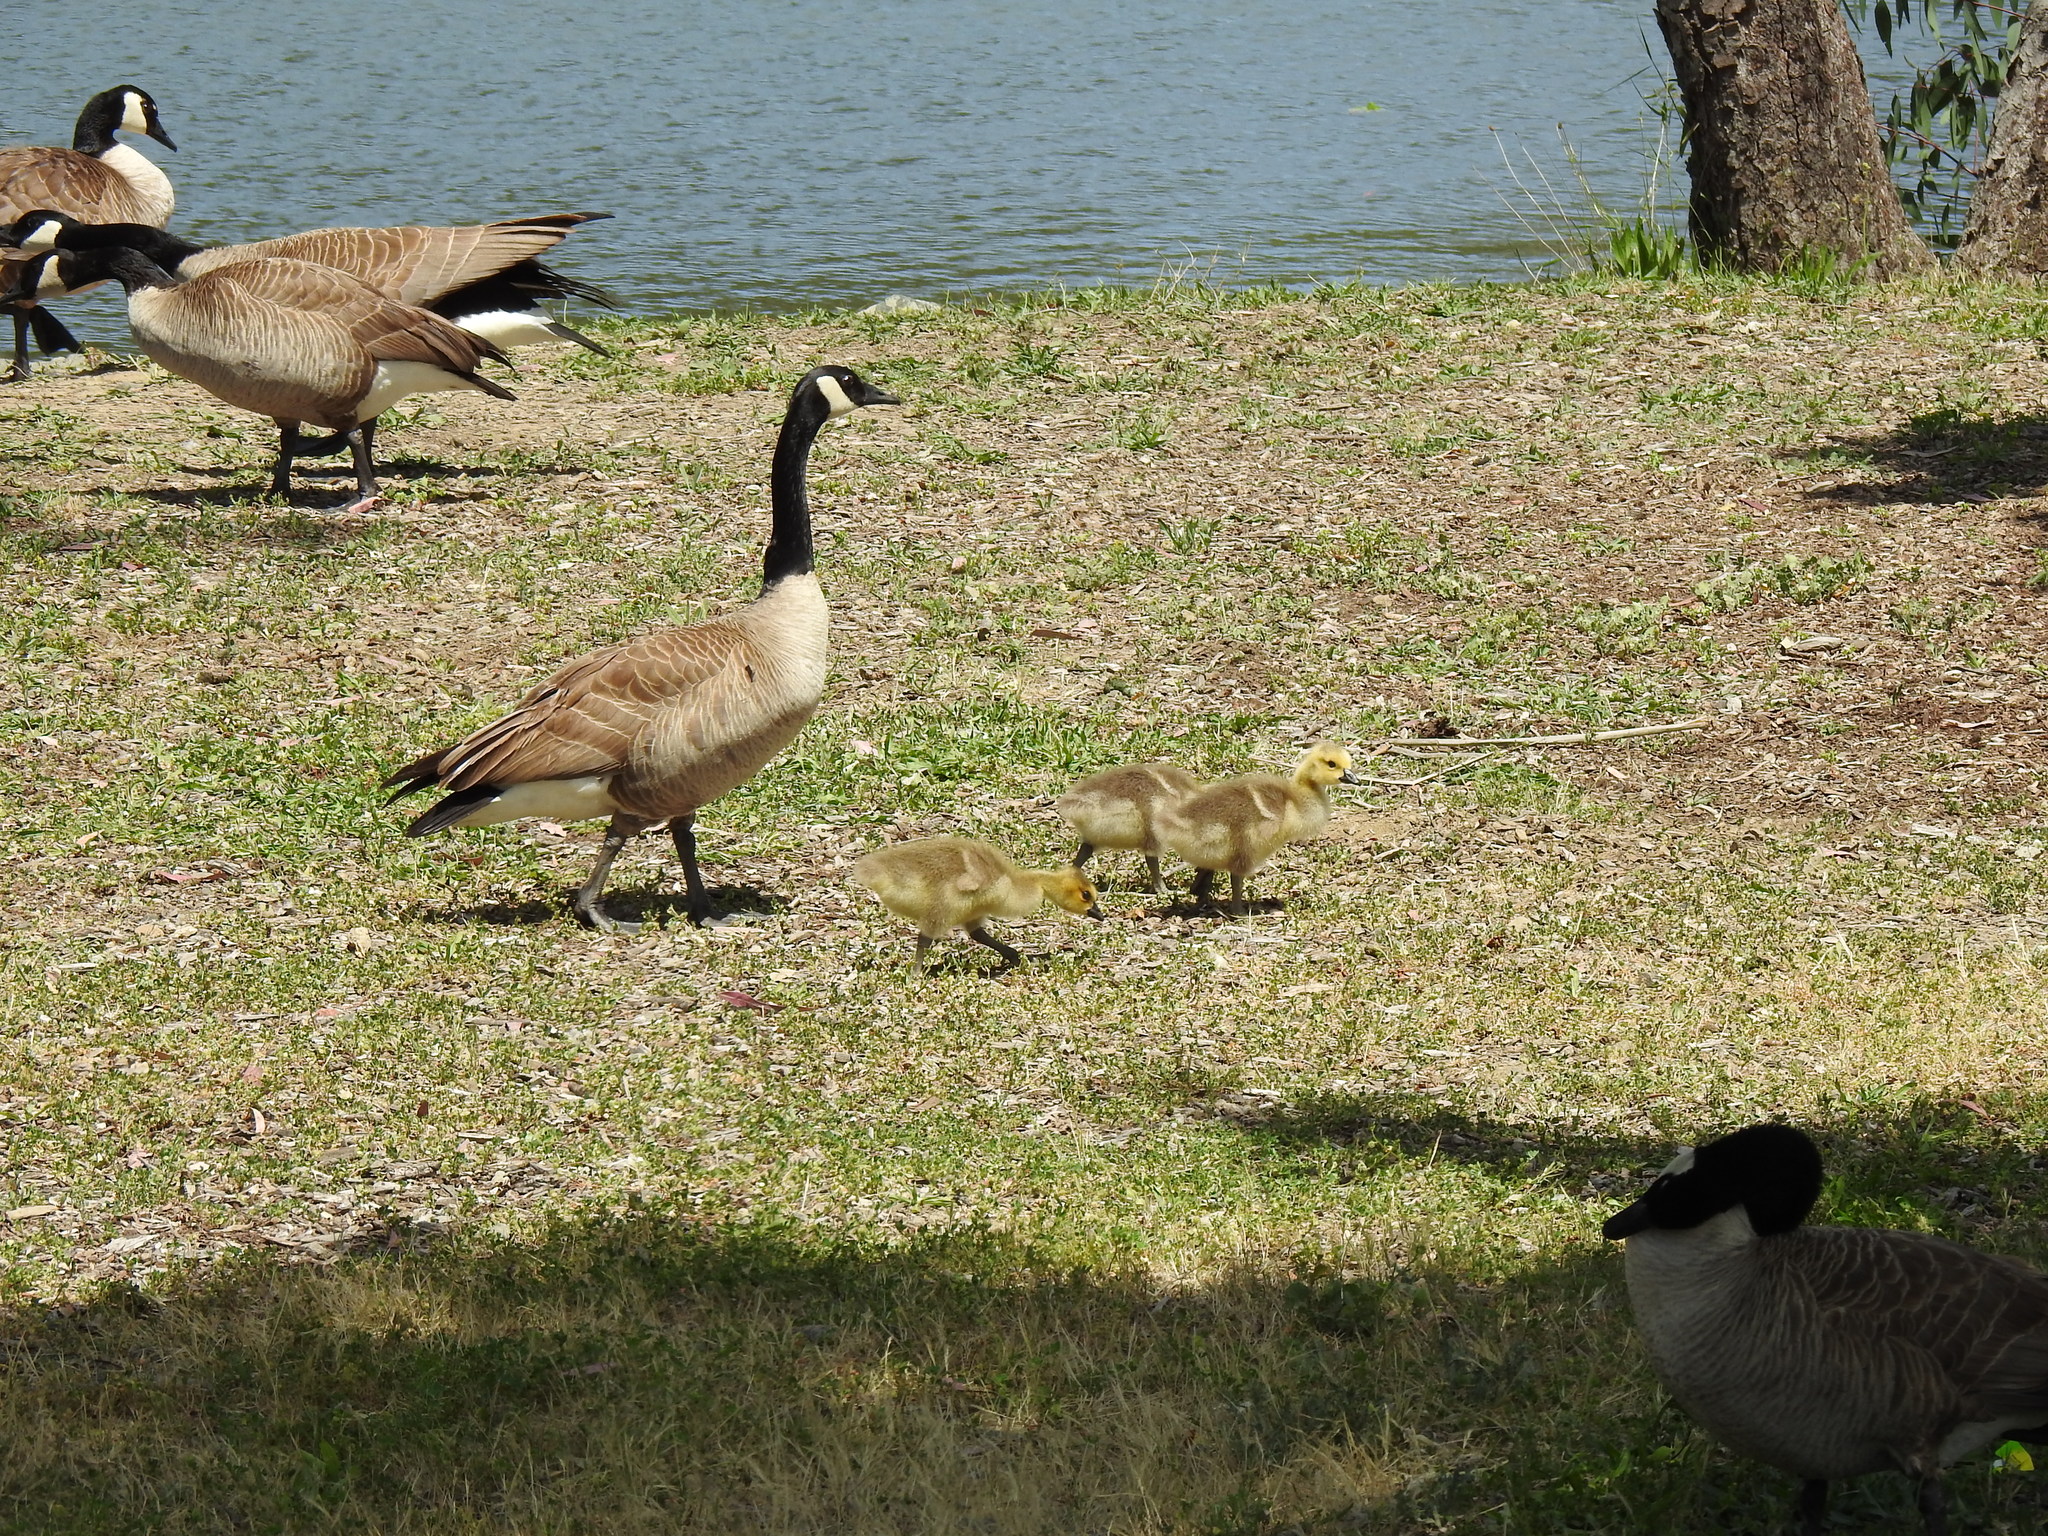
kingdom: Animalia
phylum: Chordata
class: Aves
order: Anseriformes
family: Anatidae
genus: Branta
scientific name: Branta canadensis
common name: Canada goose
